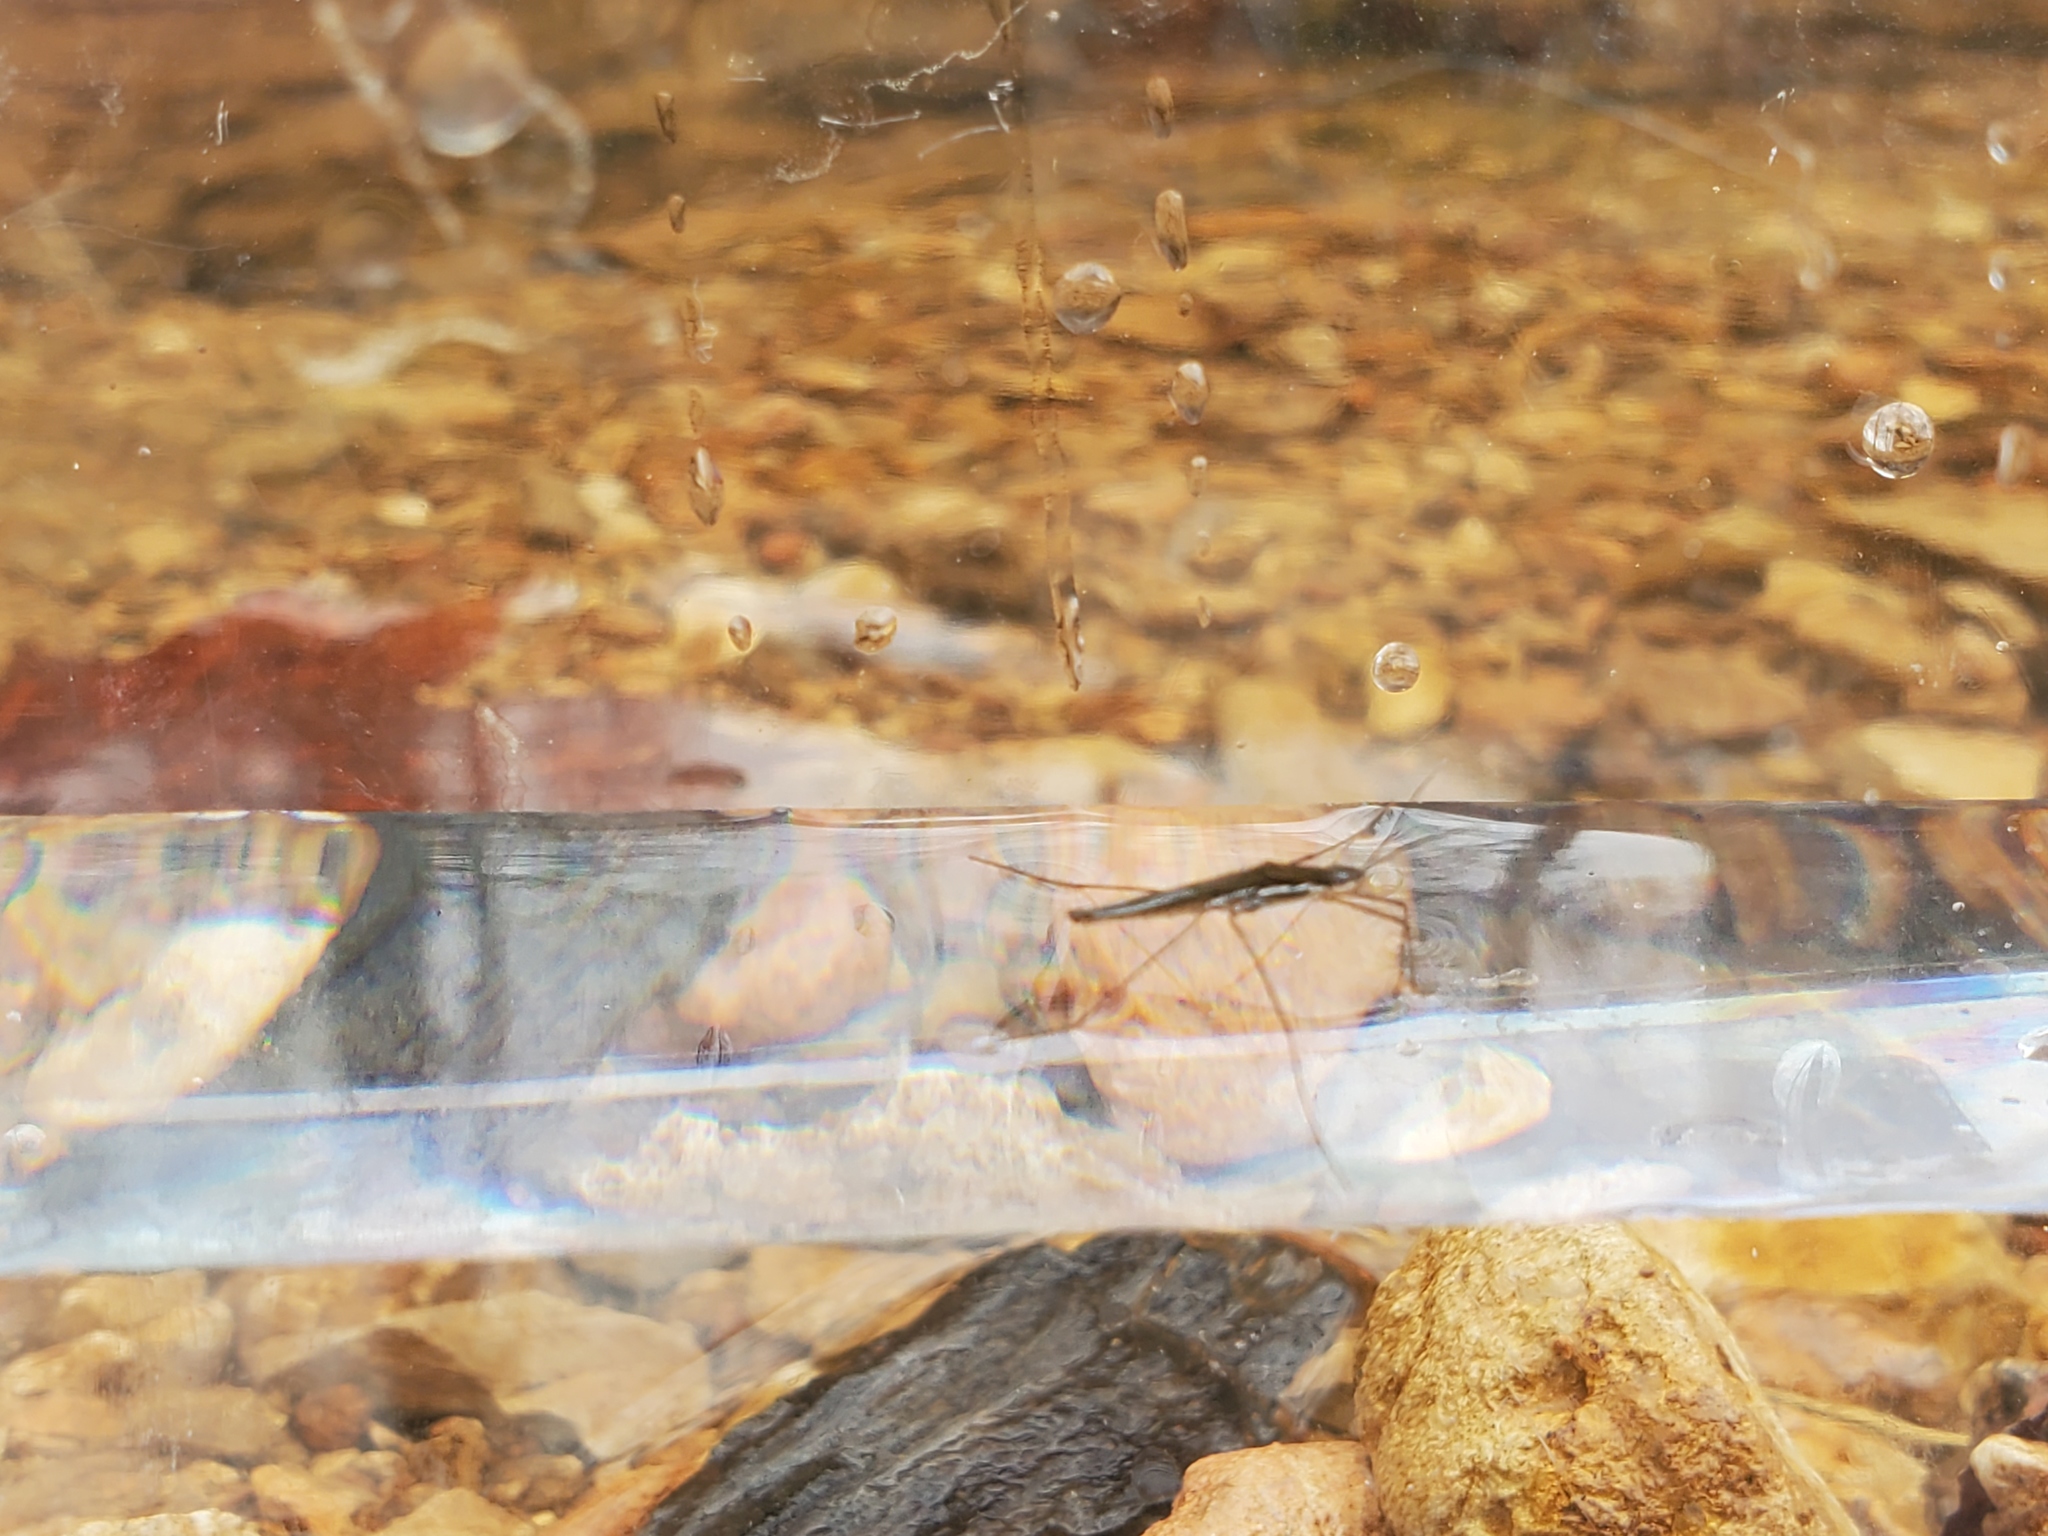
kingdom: Animalia
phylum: Arthropoda
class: Insecta
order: Hemiptera
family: Gerridae
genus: Limnoporus
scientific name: Limnoporus canaliculatus
